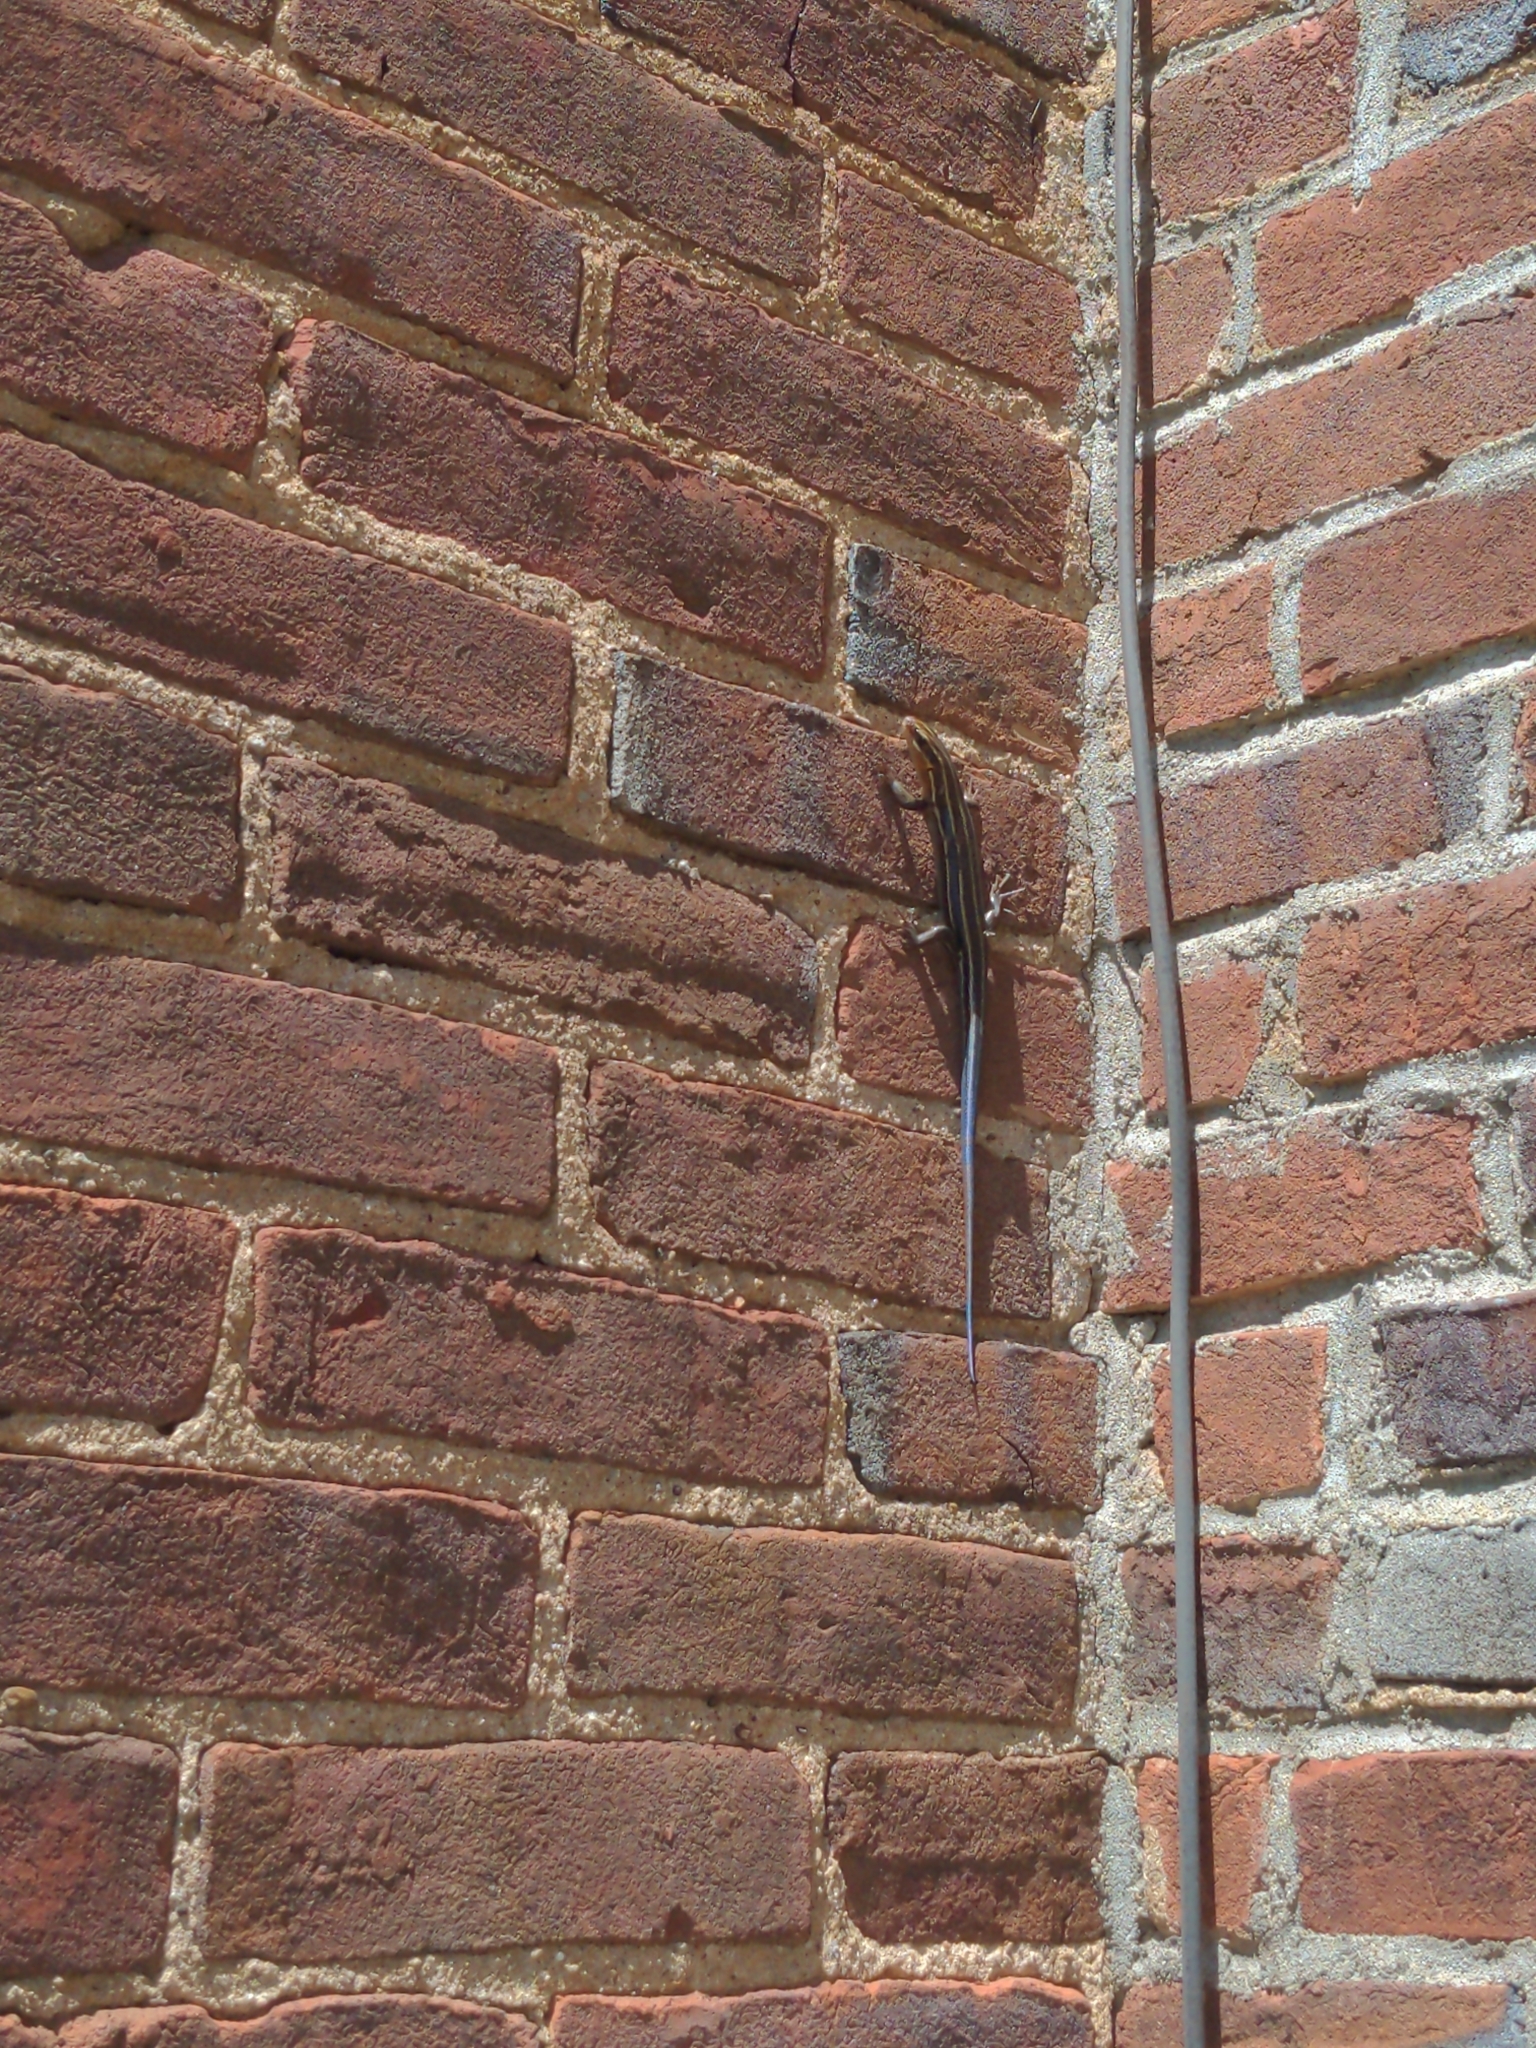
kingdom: Animalia
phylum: Chordata
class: Squamata
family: Scincidae
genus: Plestiodon
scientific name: Plestiodon fasciatus
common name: Five-lined skink
